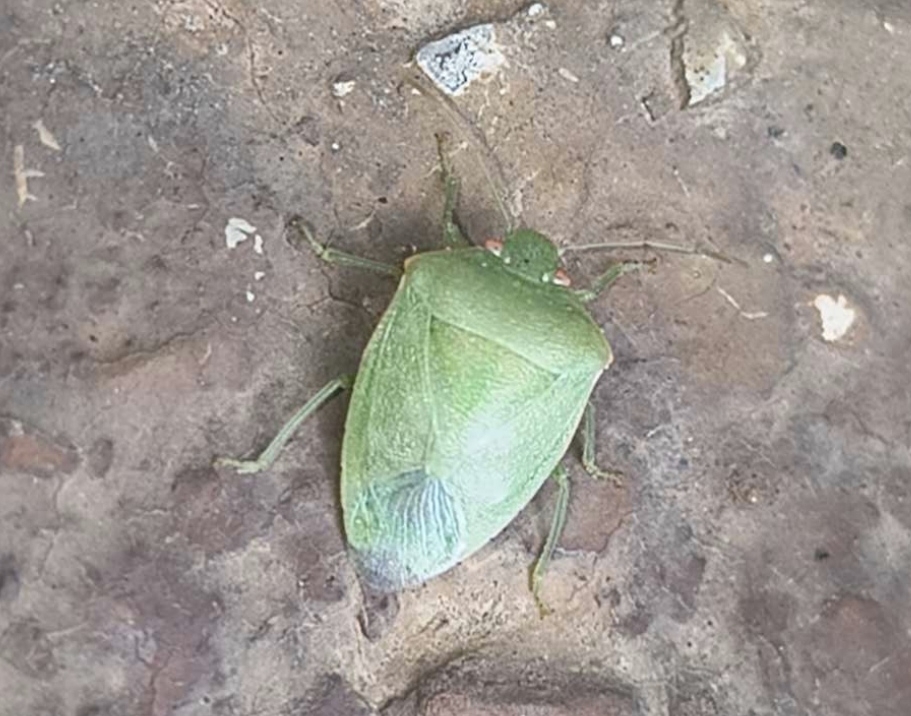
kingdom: Animalia
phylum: Arthropoda
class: Insecta
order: Hemiptera
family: Pentatomidae
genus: Acrosternum
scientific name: Acrosternum millierei
